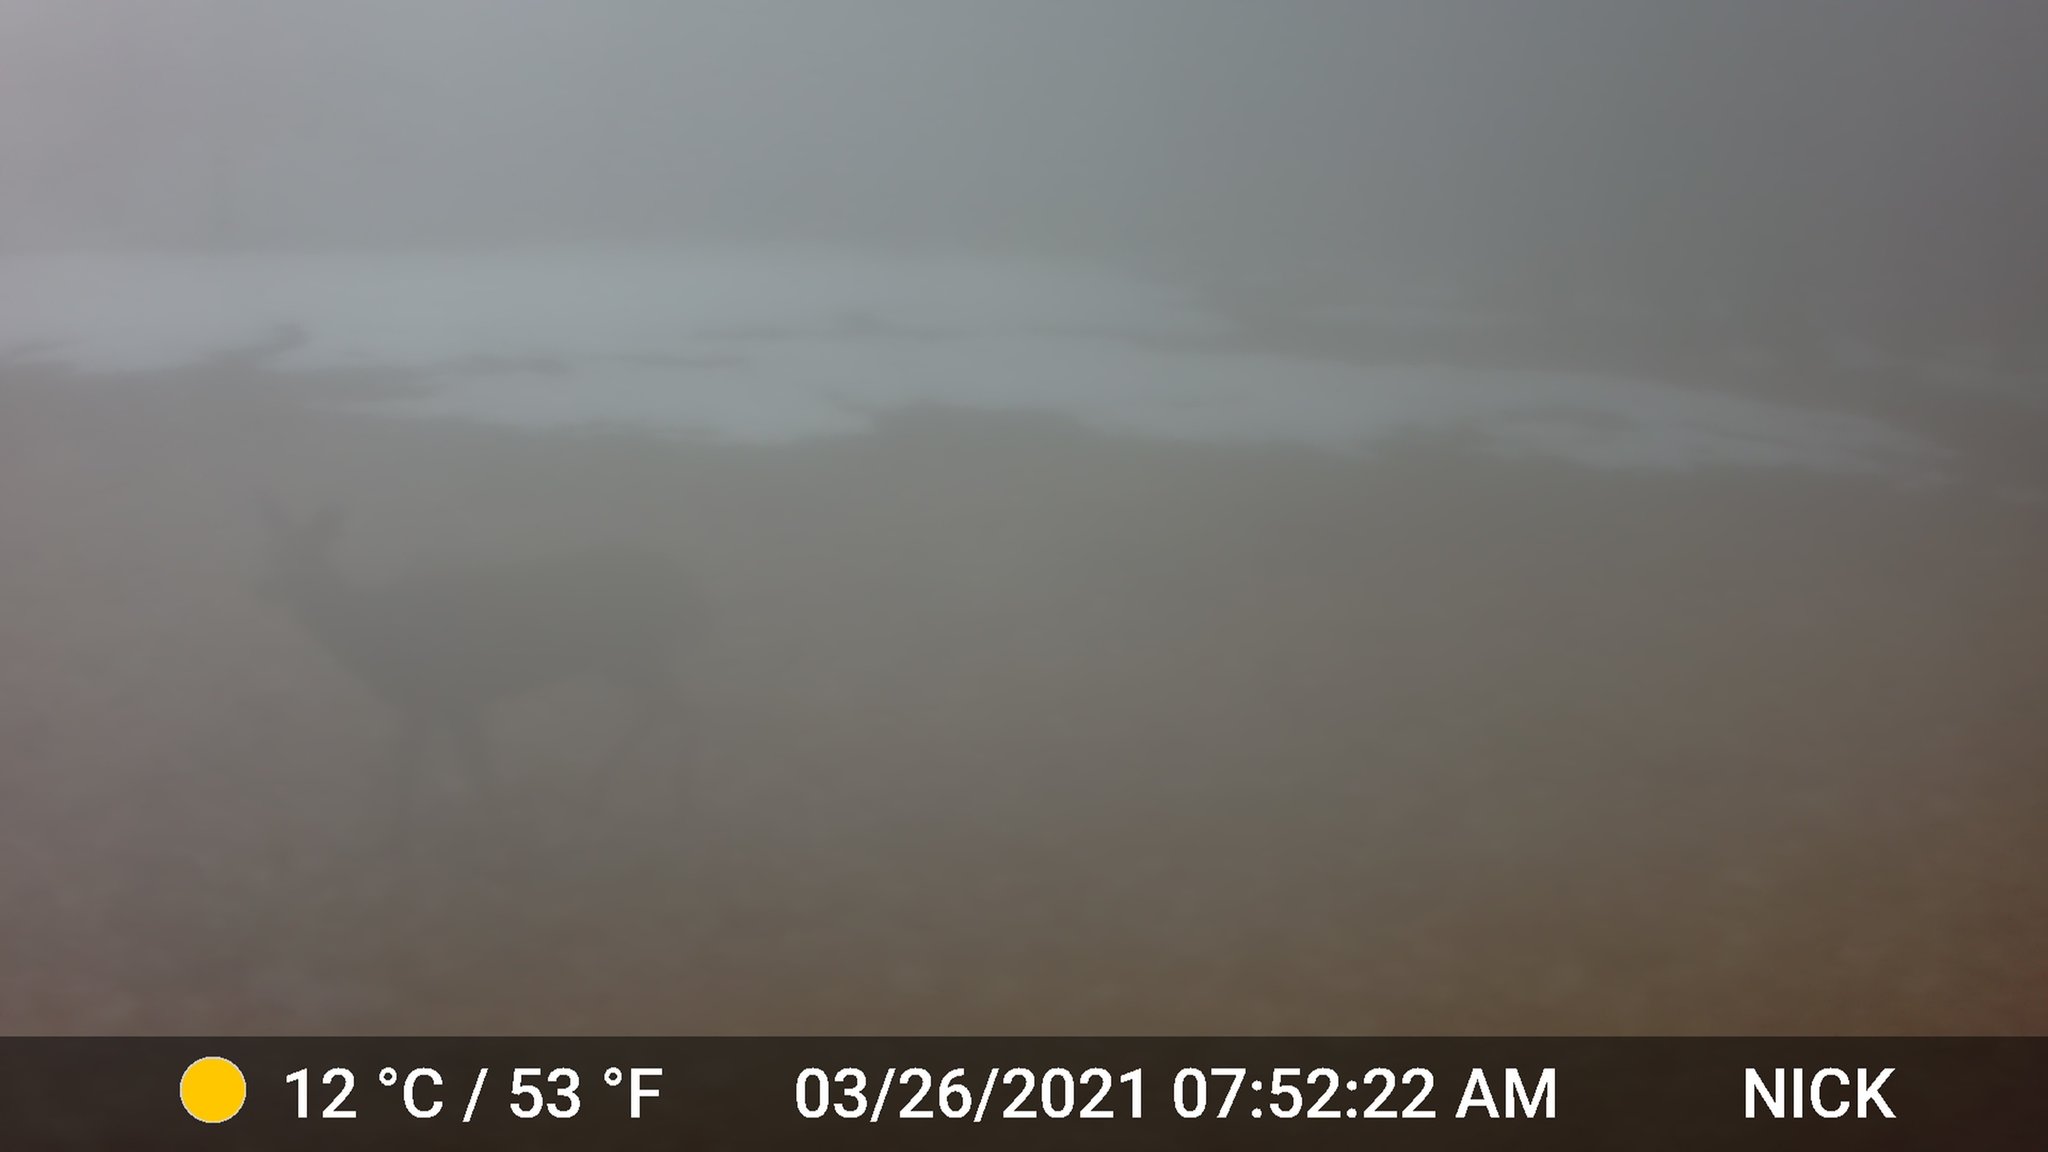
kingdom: Animalia
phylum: Chordata
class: Mammalia
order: Artiodactyla
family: Cervidae
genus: Odocoileus
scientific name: Odocoileus virginianus
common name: White-tailed deer
